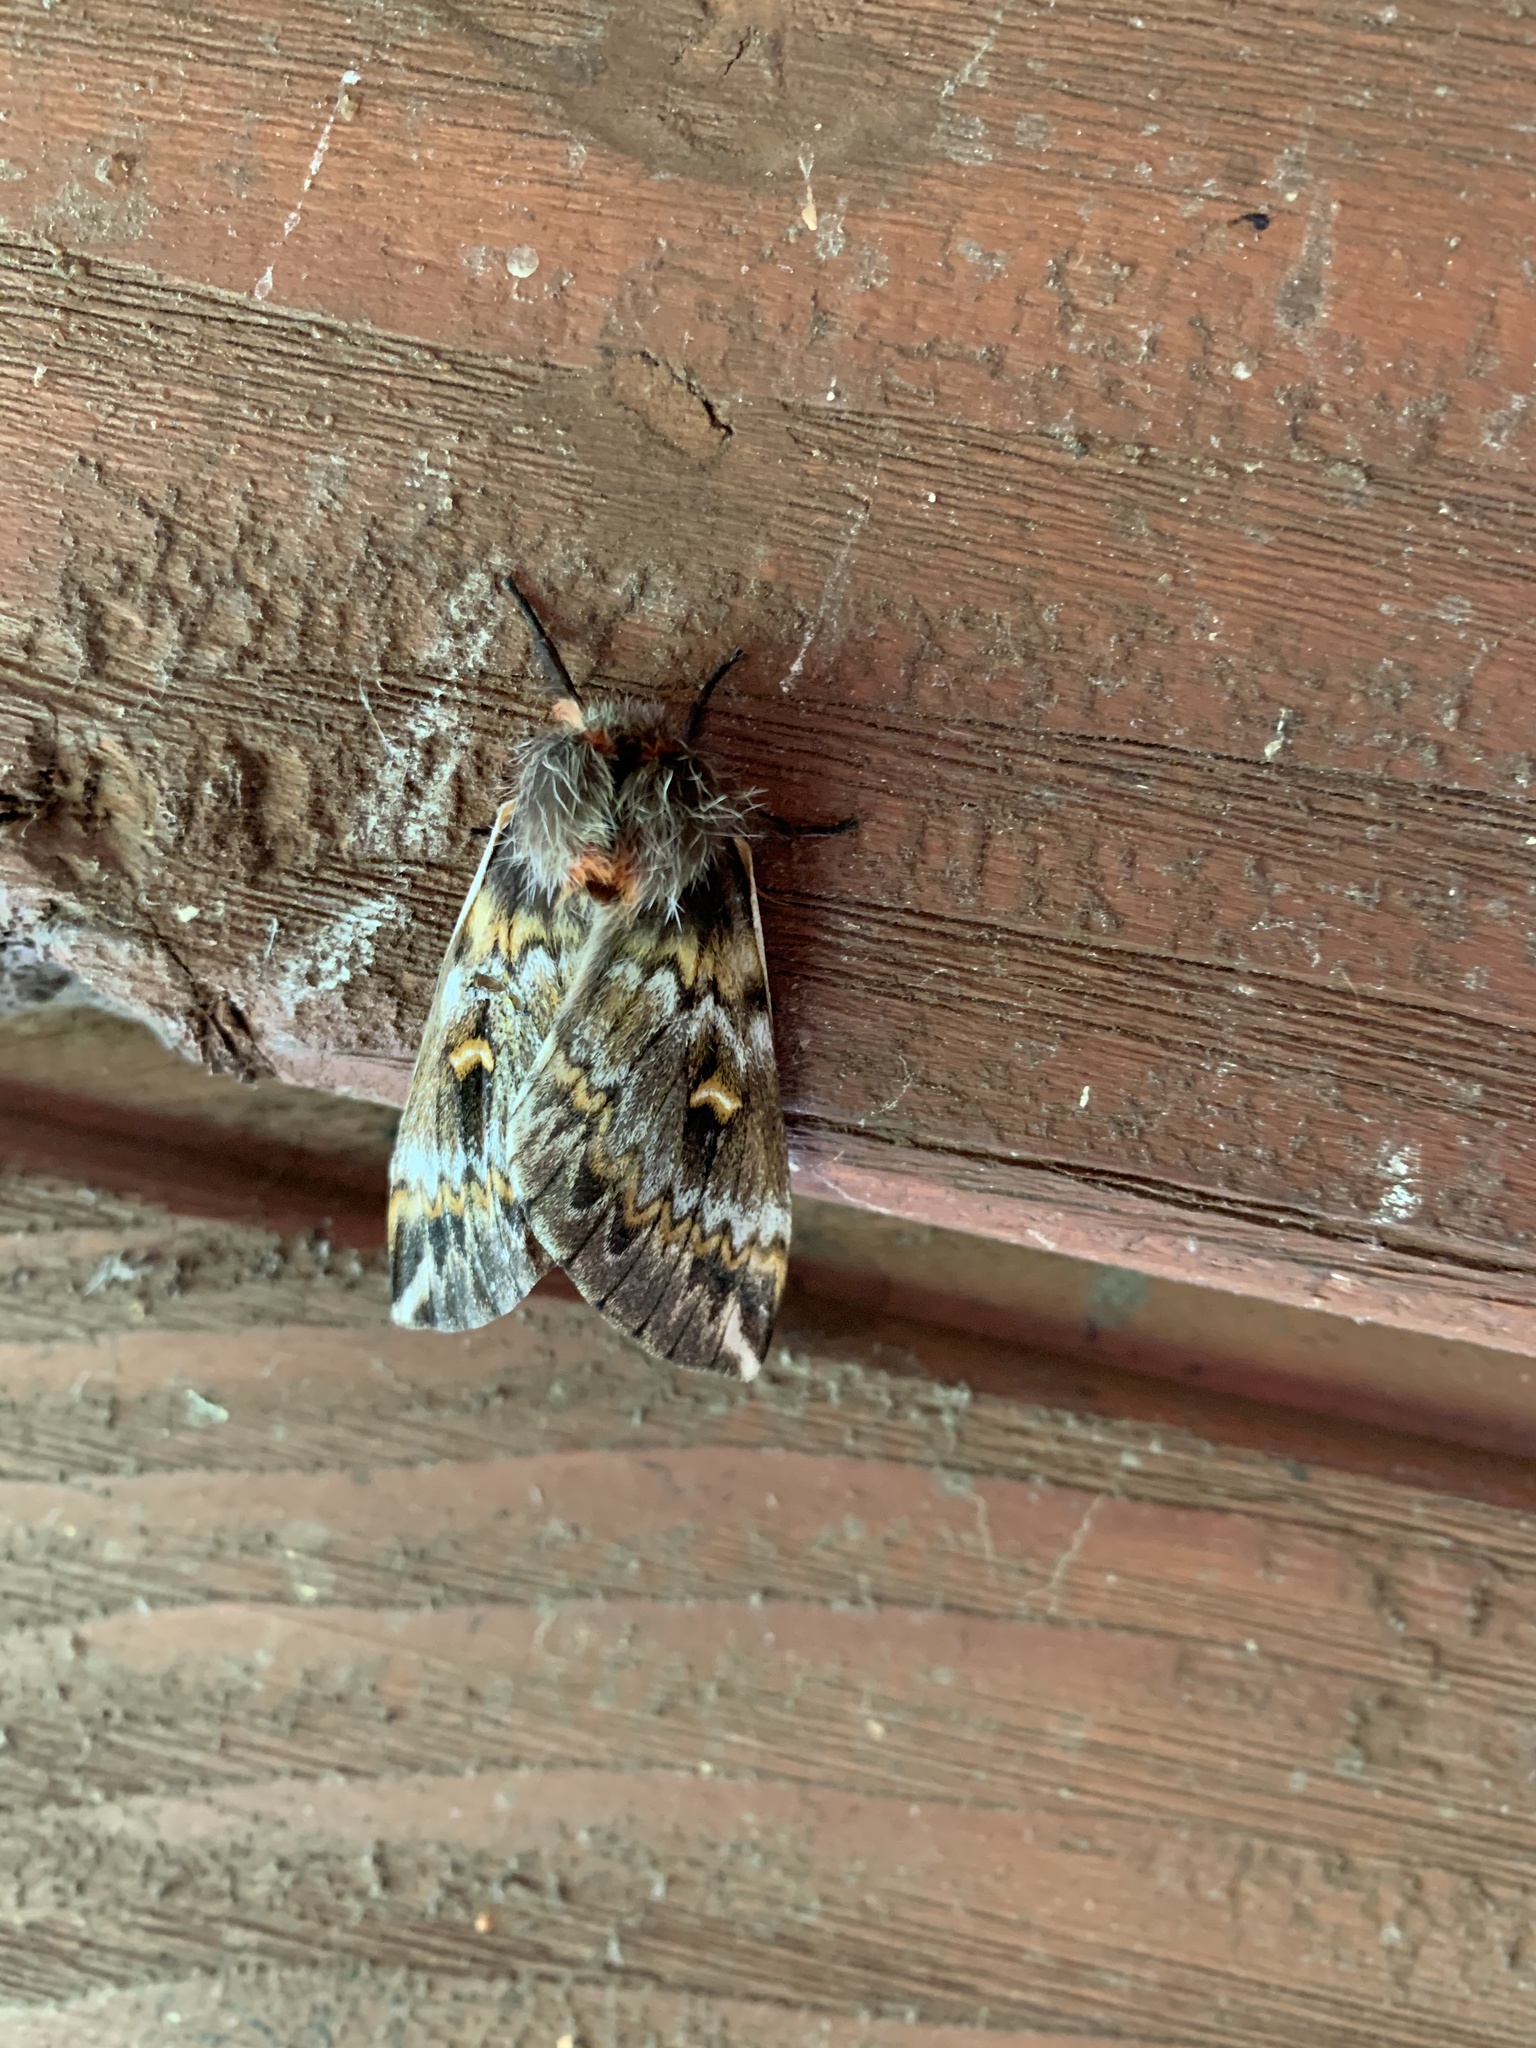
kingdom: Animalia
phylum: Arthropoda
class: Insecta
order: Lepidoptera
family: Saturniidae
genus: Ormiscodes
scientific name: Ormiscodes schmidtnielseni
